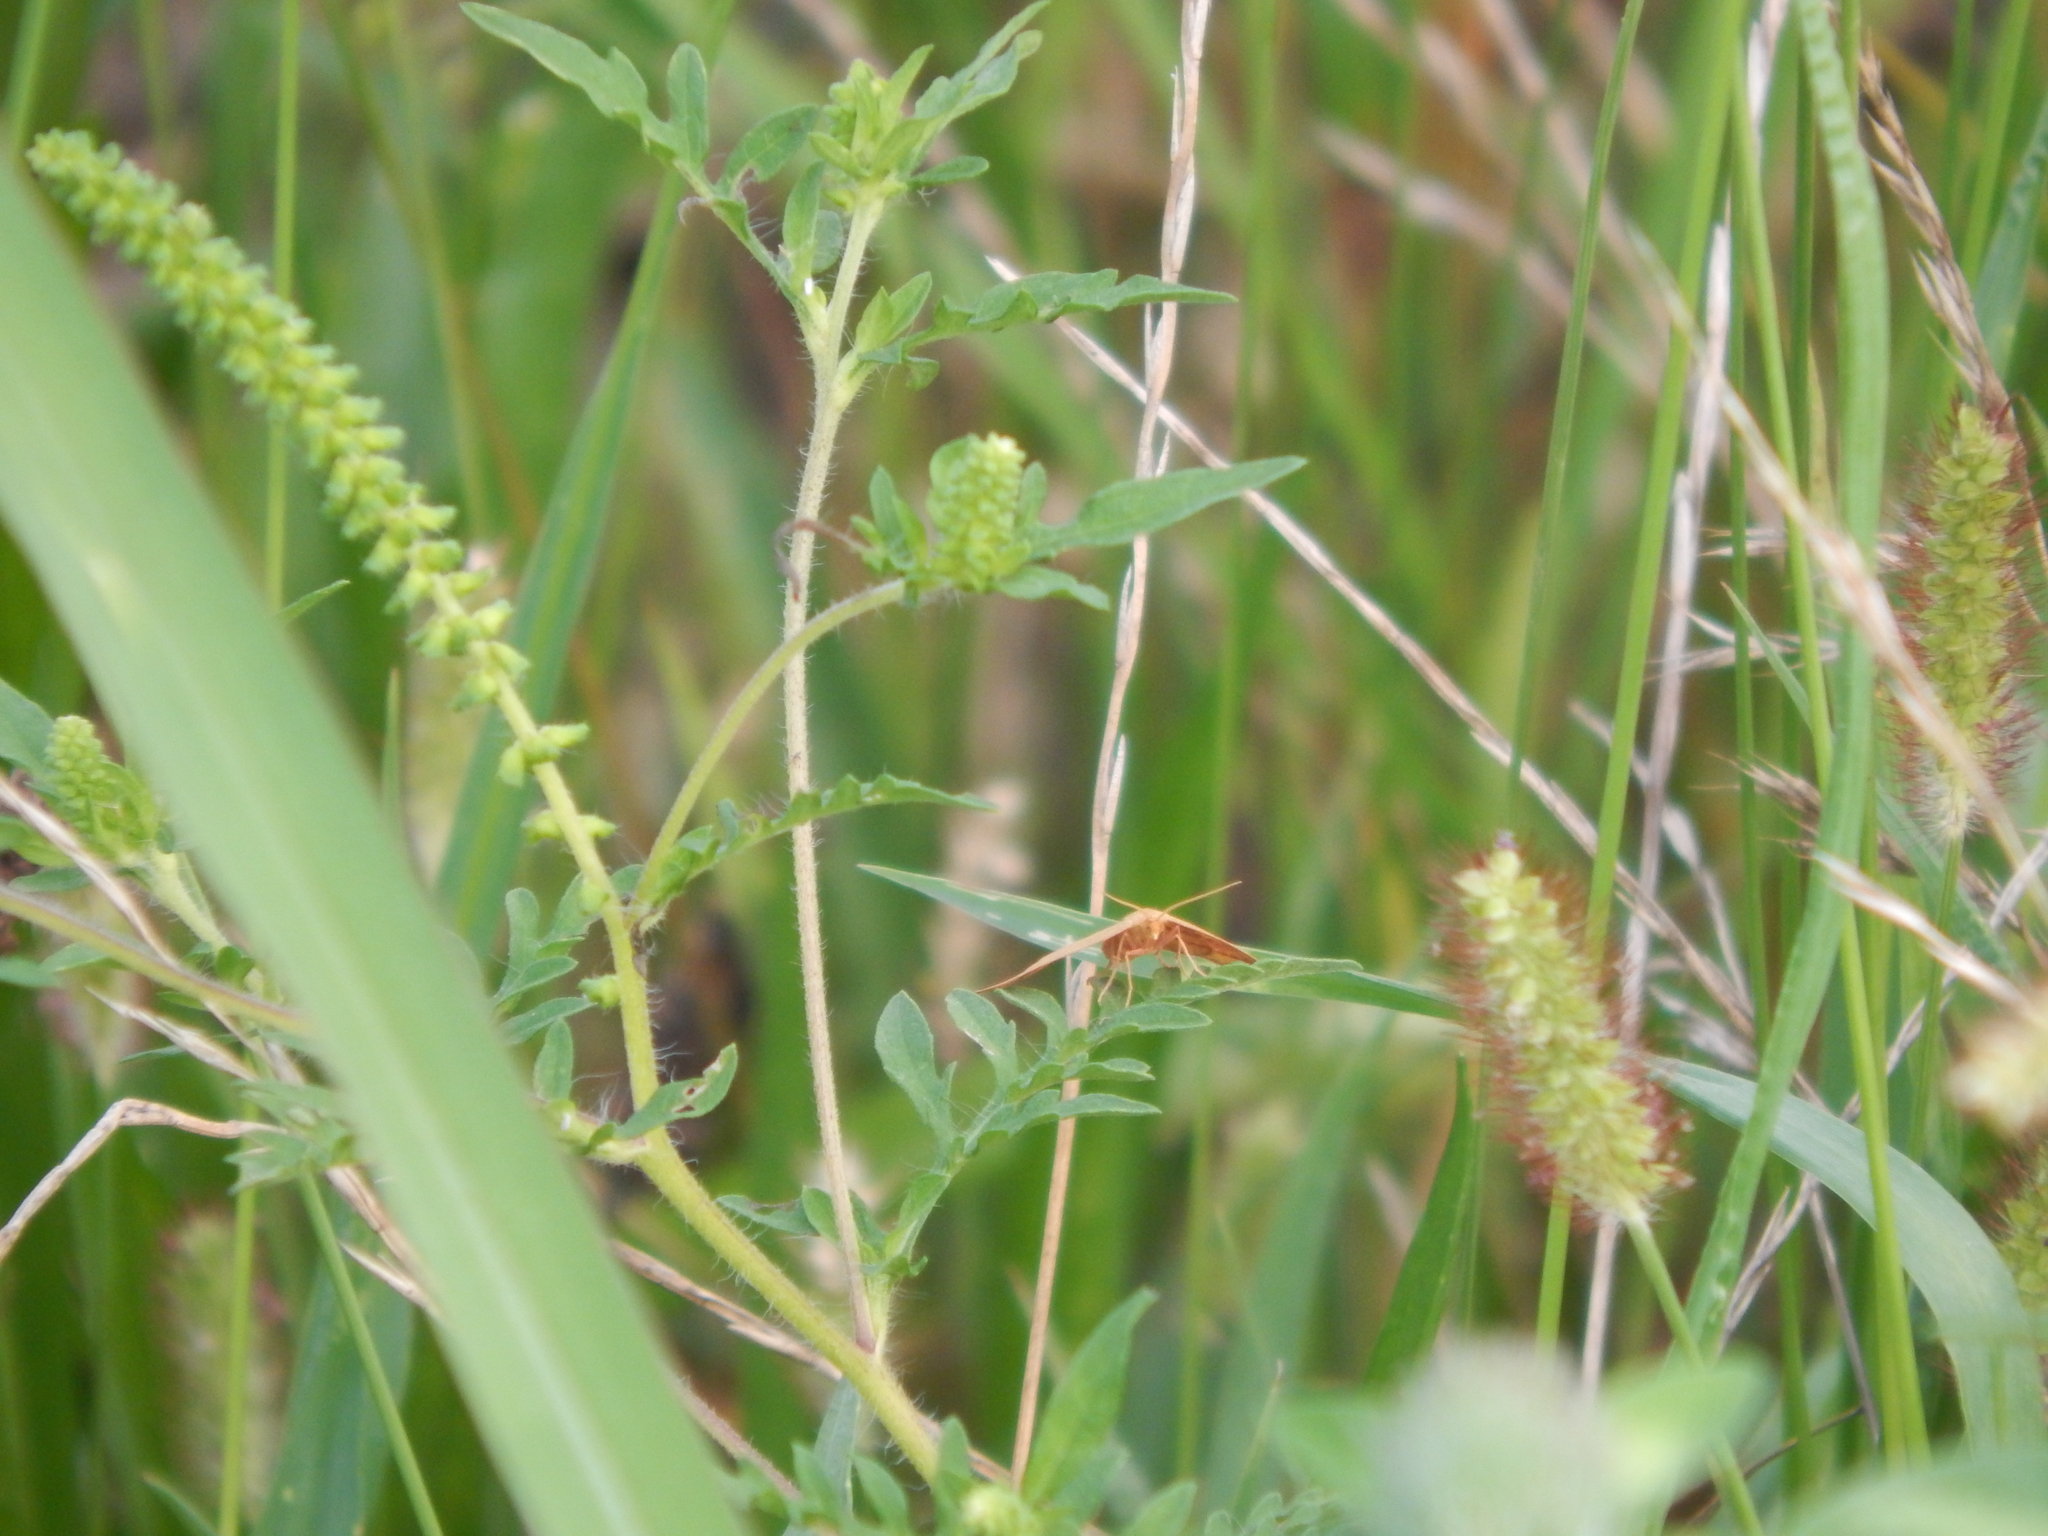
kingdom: Animalia
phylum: Arthropoda
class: Insecta
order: Lepidoptera
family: Geometridae
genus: Haematopis
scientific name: Haematopis grataria
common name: Chickweed geometer
